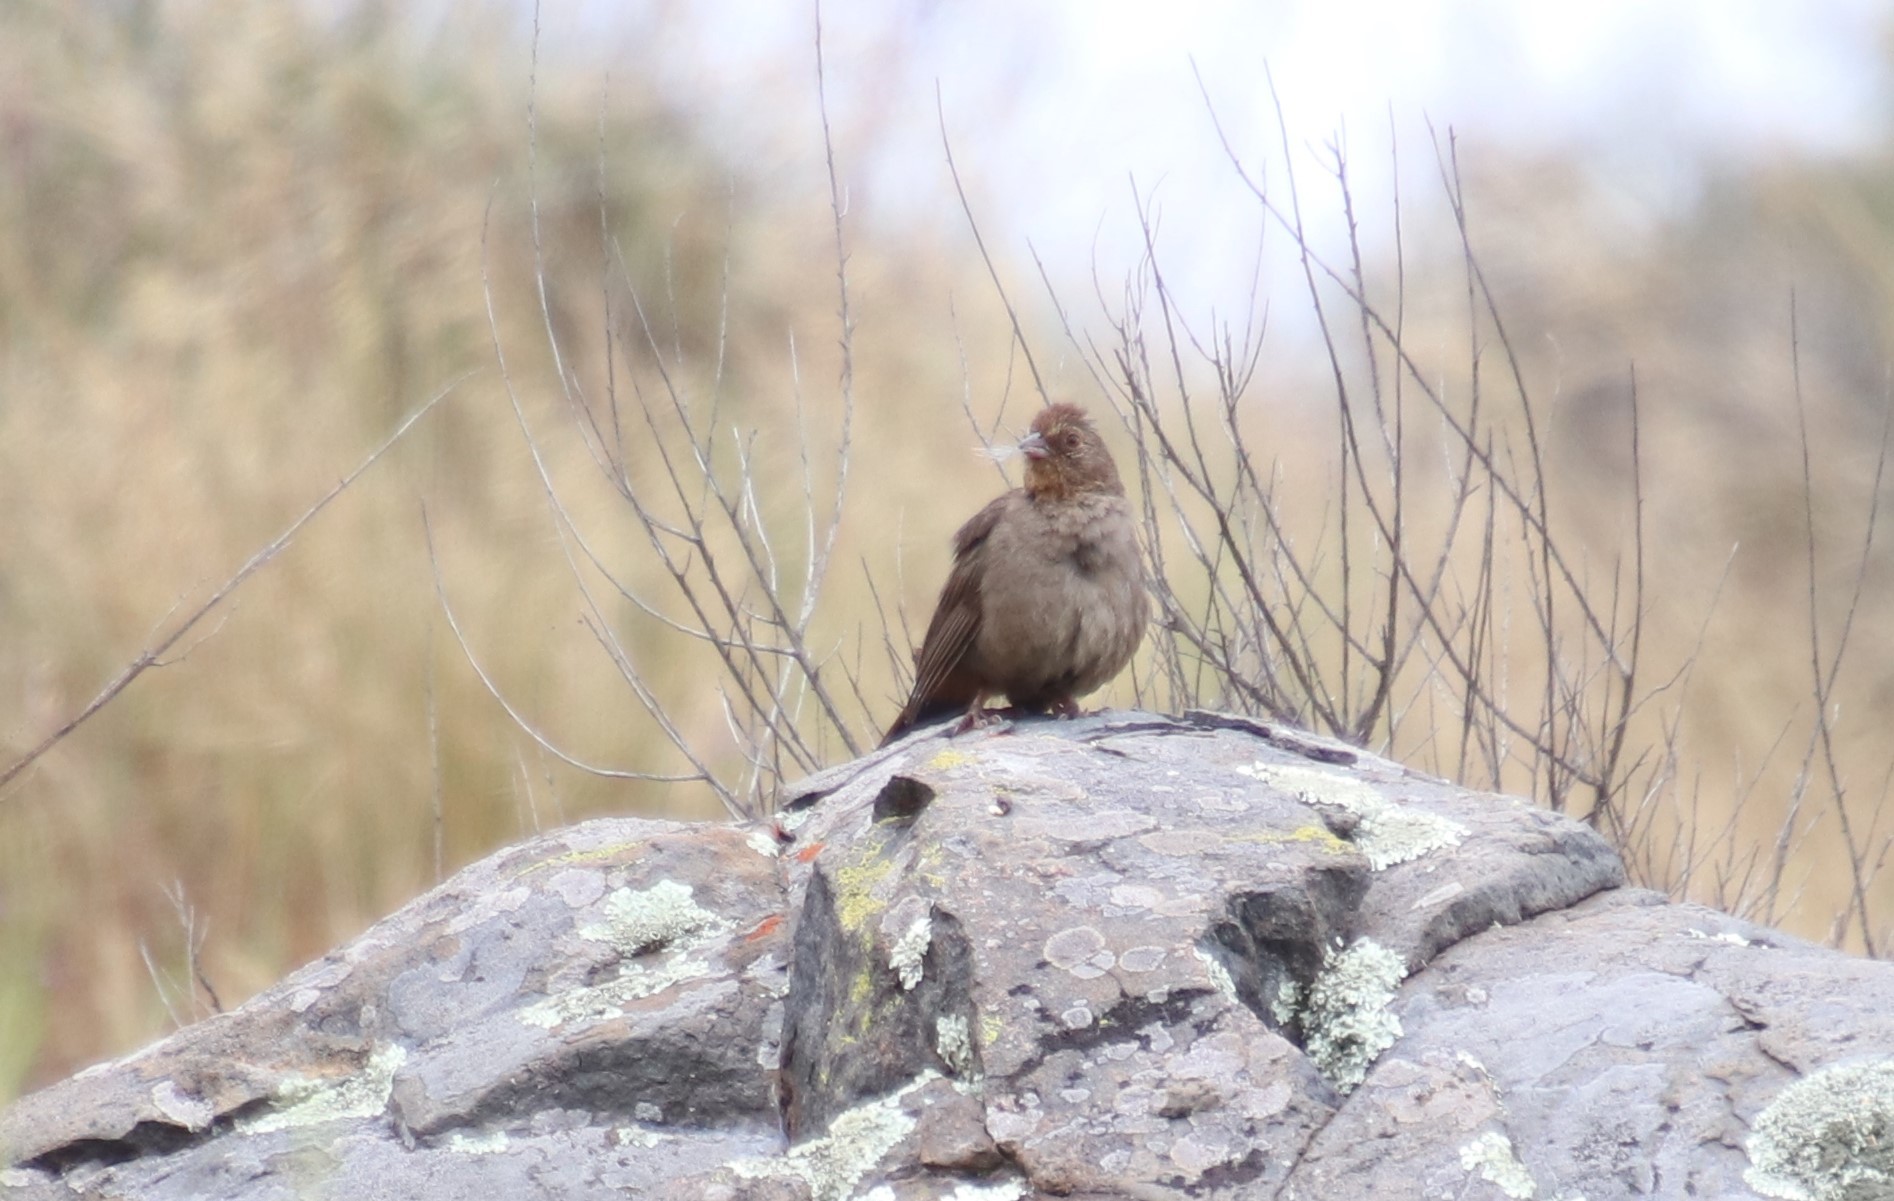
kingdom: Animalia
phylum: Chordata
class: Aves
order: Passeriformes
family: Passerellidae
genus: Melozone
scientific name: Melozone crissalis
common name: California towhee
